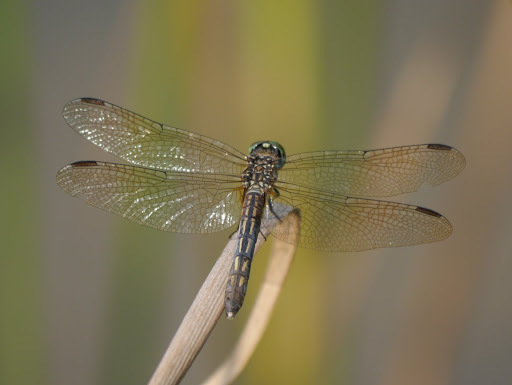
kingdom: Animalia
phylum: Arthropoda
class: Insecta
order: Odonata
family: Libellulidae
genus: Pachydiplax
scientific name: Pachydiplax longipennis
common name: Blue dasher
